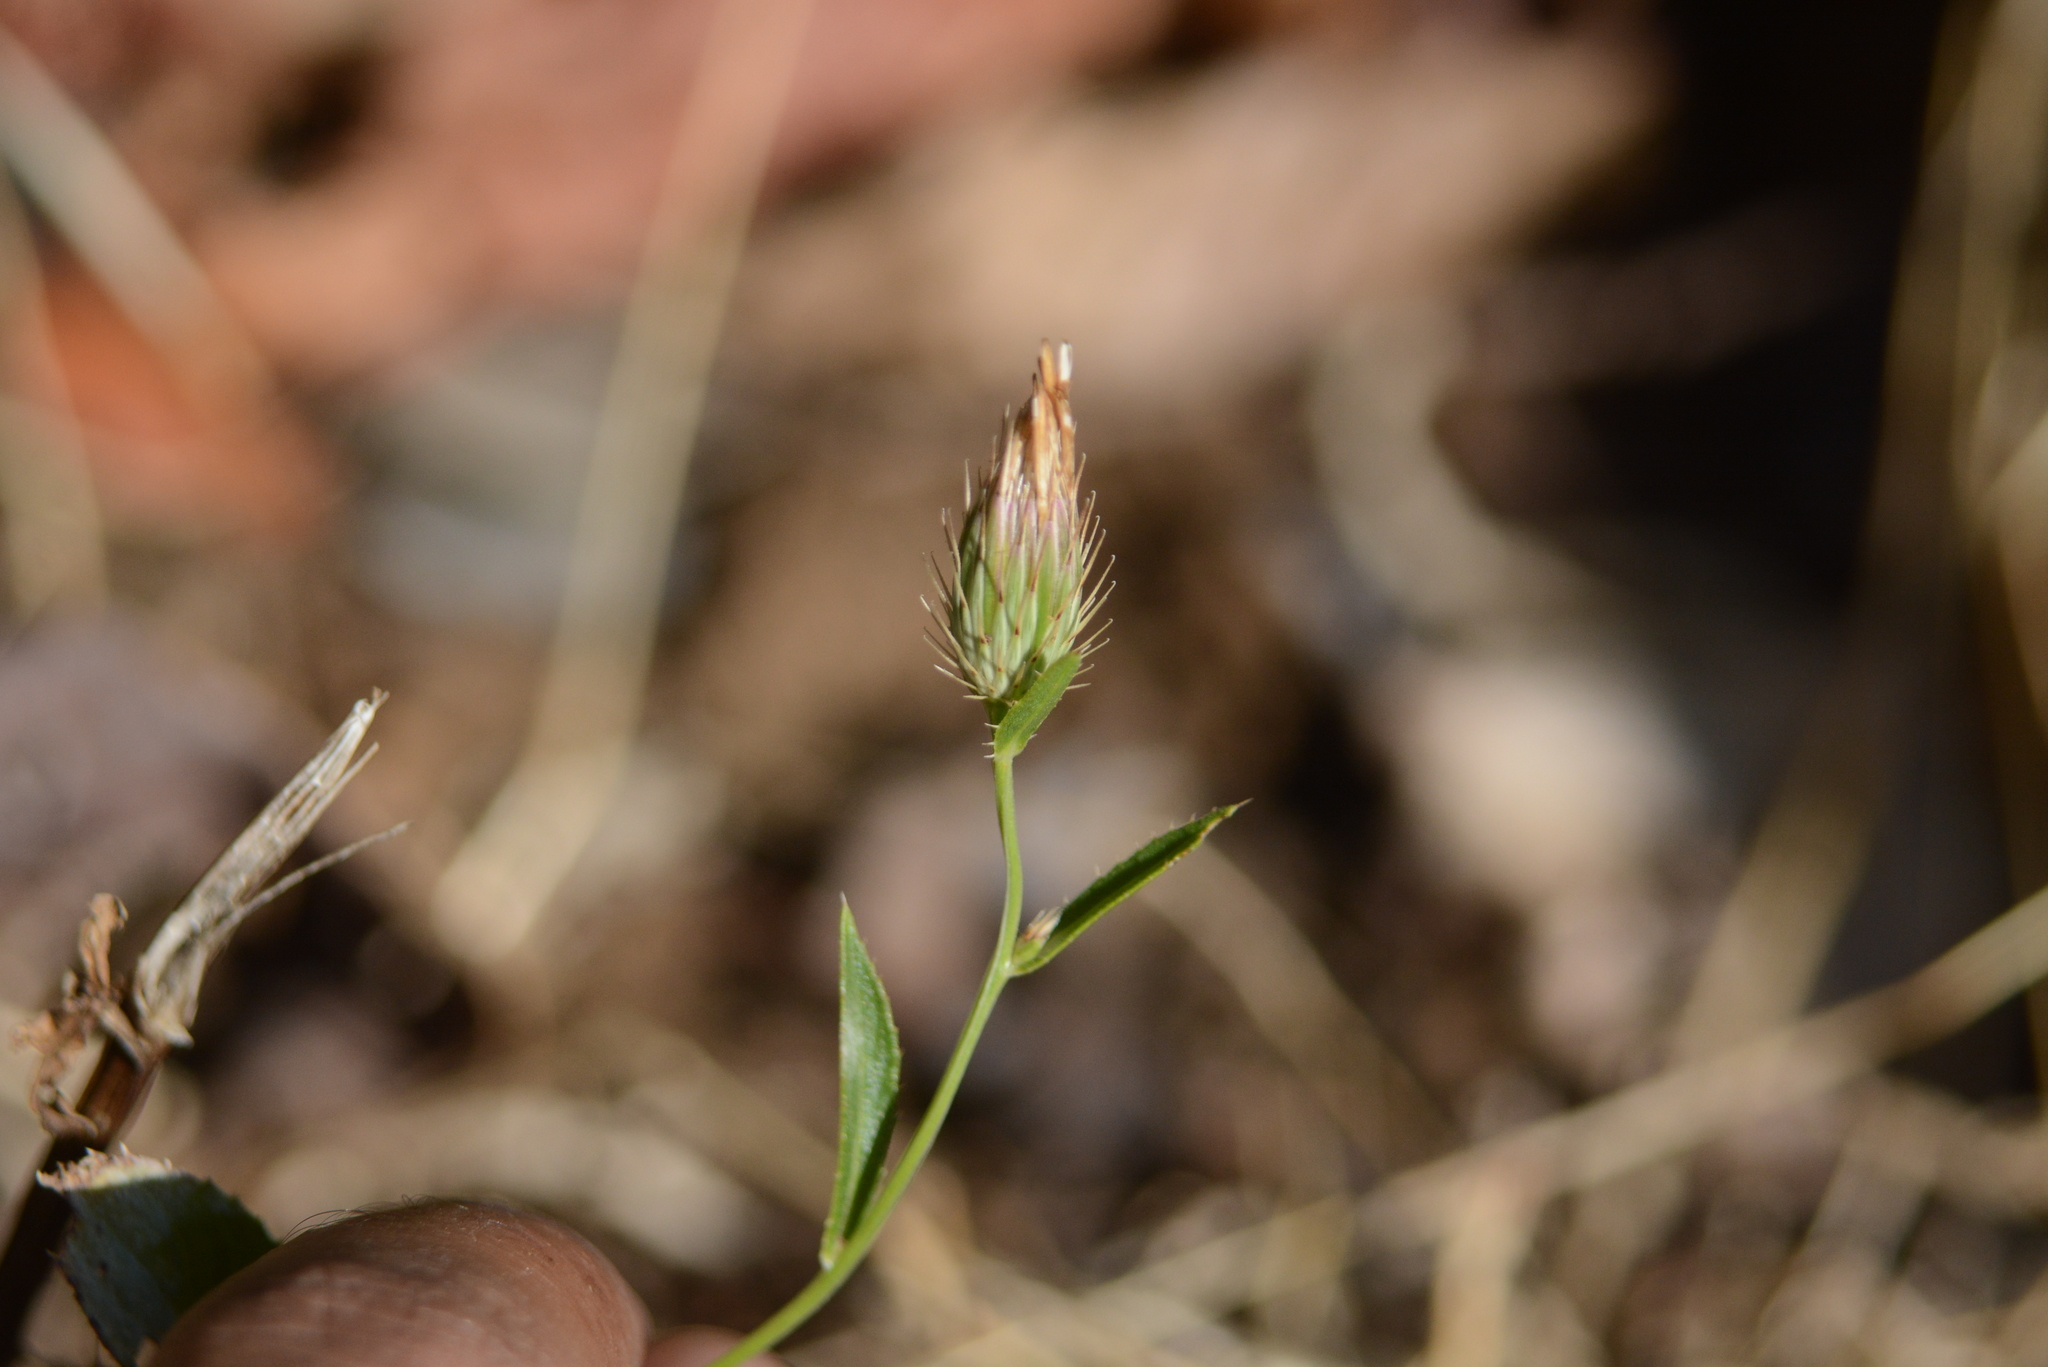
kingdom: Plantae
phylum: Tracheophyta
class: Magnoliopsida
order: Asterales
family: Asteraceae
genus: Goniocaulon
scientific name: Goniocaulon indicum
